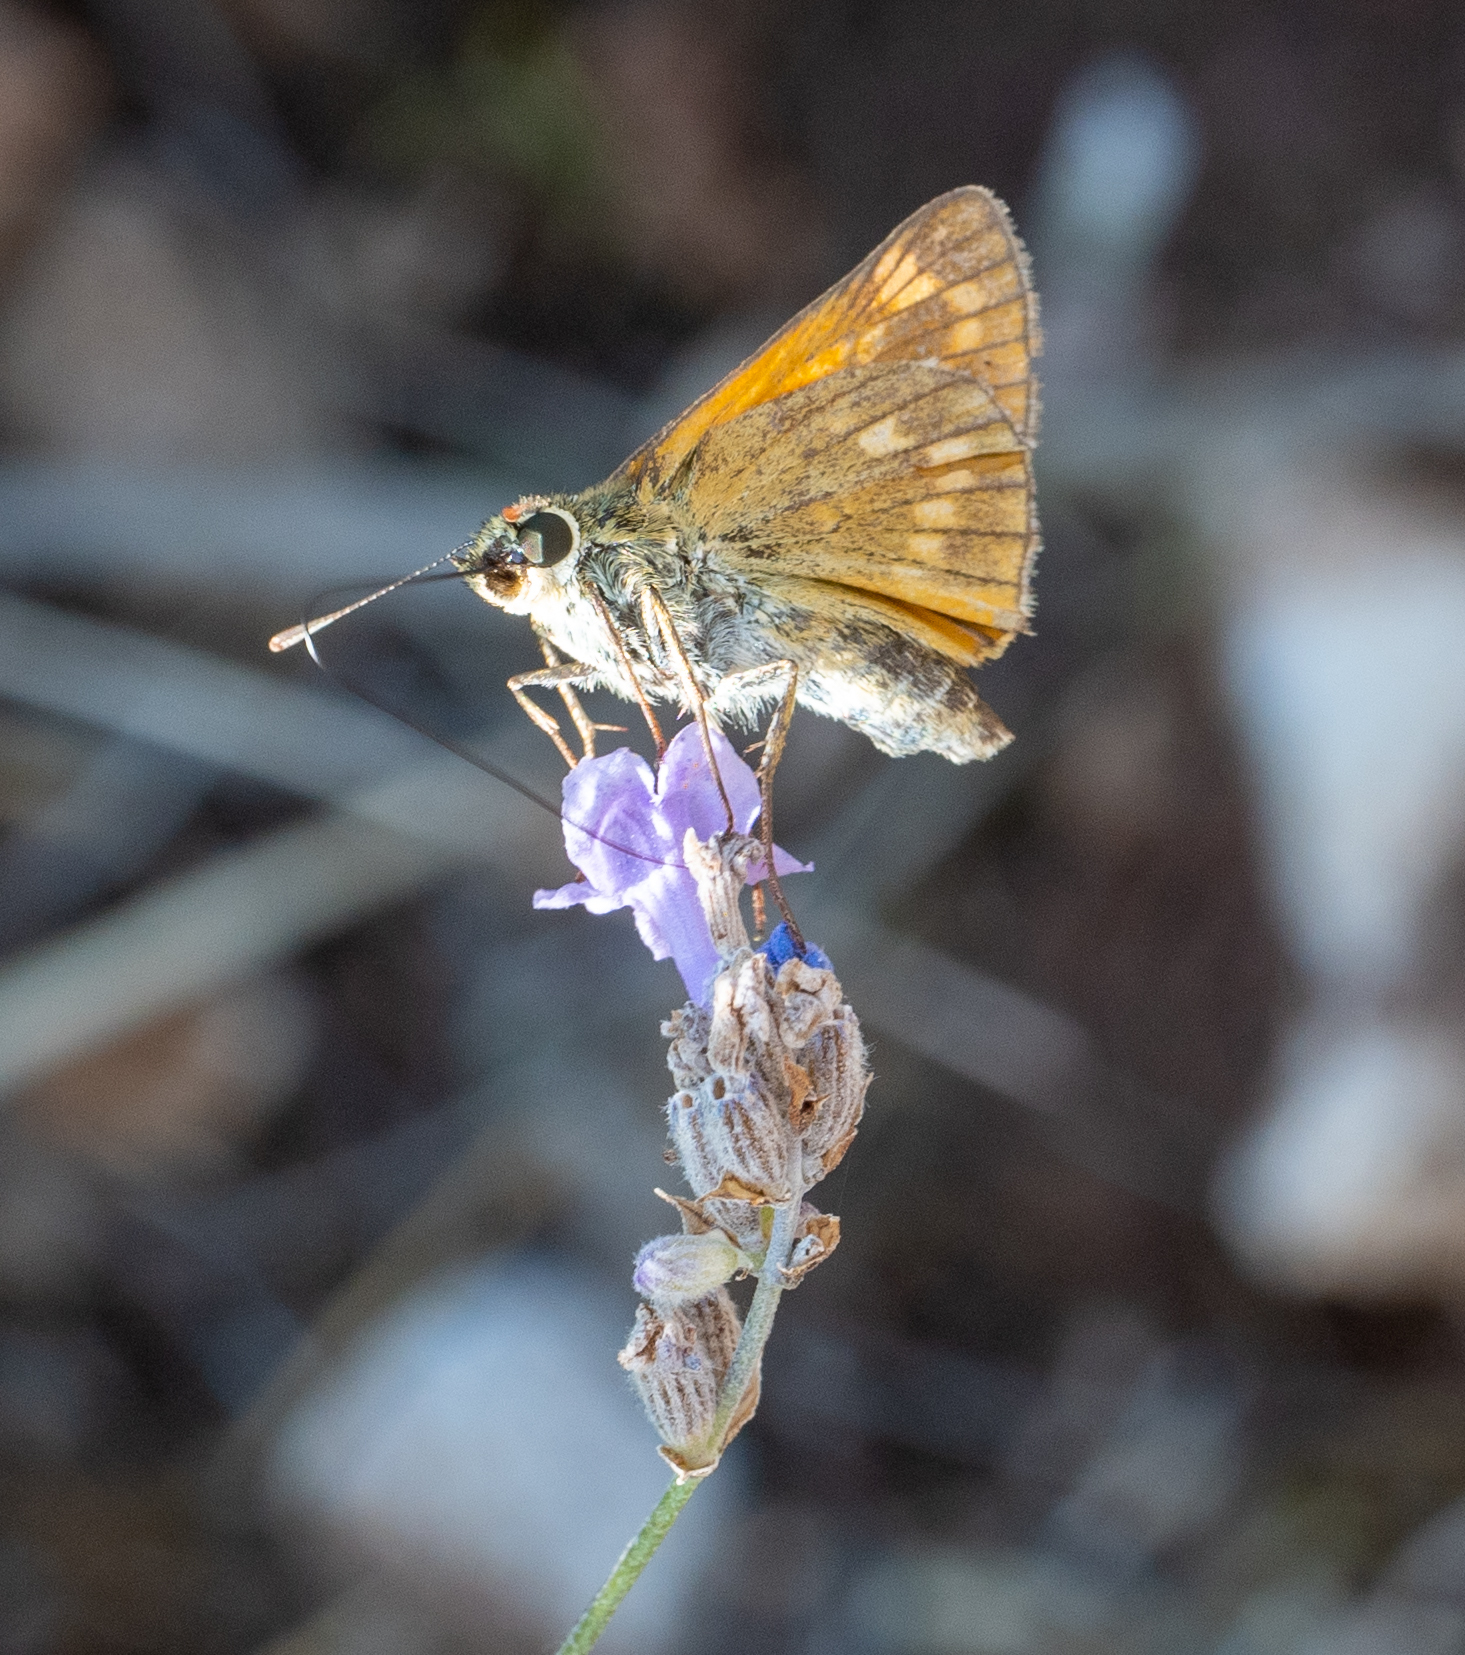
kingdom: Animalia
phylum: Arthropoda
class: Insecta
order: Lepidoptera
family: Hesperiidae
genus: Ochlodes
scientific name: Ochlodes venata
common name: Large skipper
